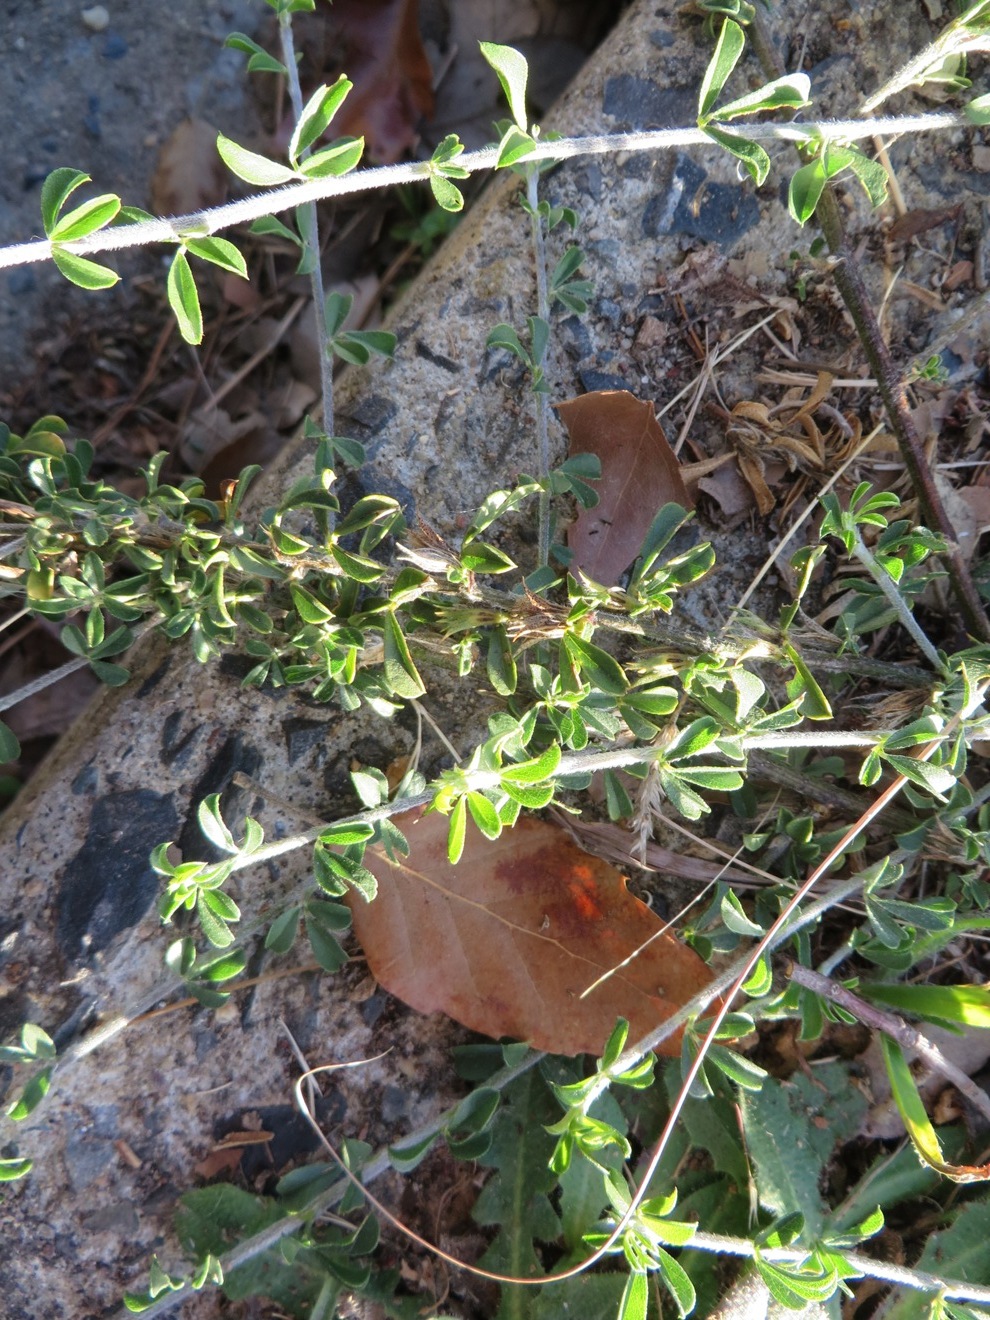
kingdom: Plantae
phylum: Tracheophyta
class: Magnoliopsida
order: Fabales
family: Fabaceae
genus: Psoralea
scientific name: Psoralea
